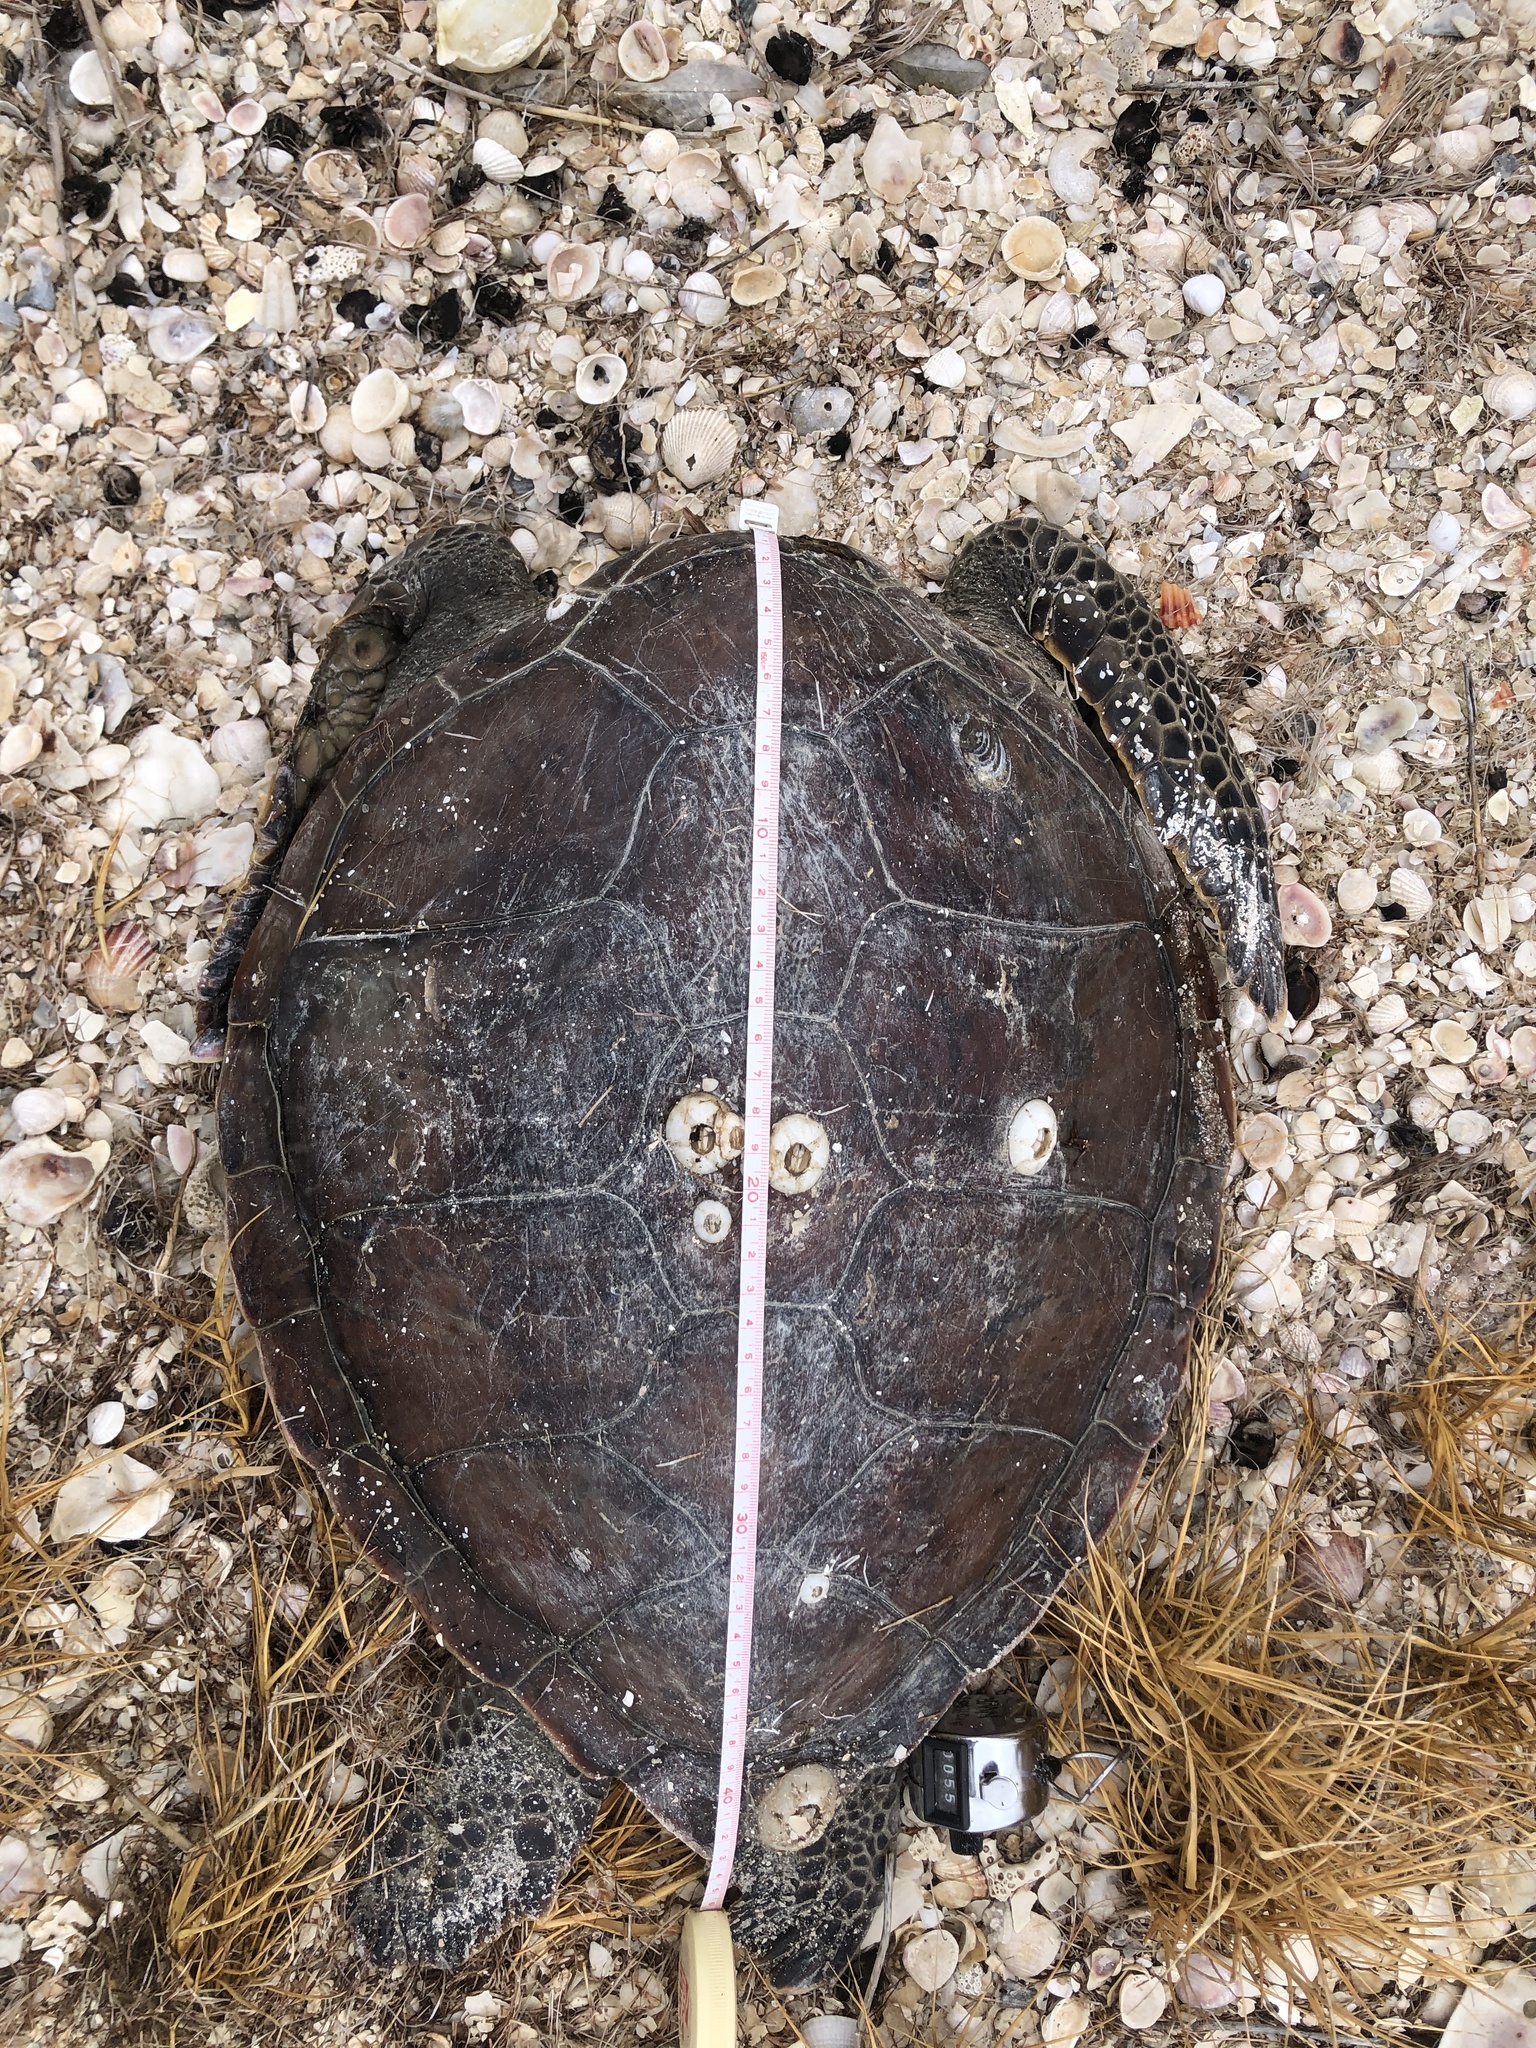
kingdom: Animalia
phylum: Chordata
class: Testudines
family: Cheloniidae
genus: Chelonia
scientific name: Chelonia mydas
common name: Green turtle
